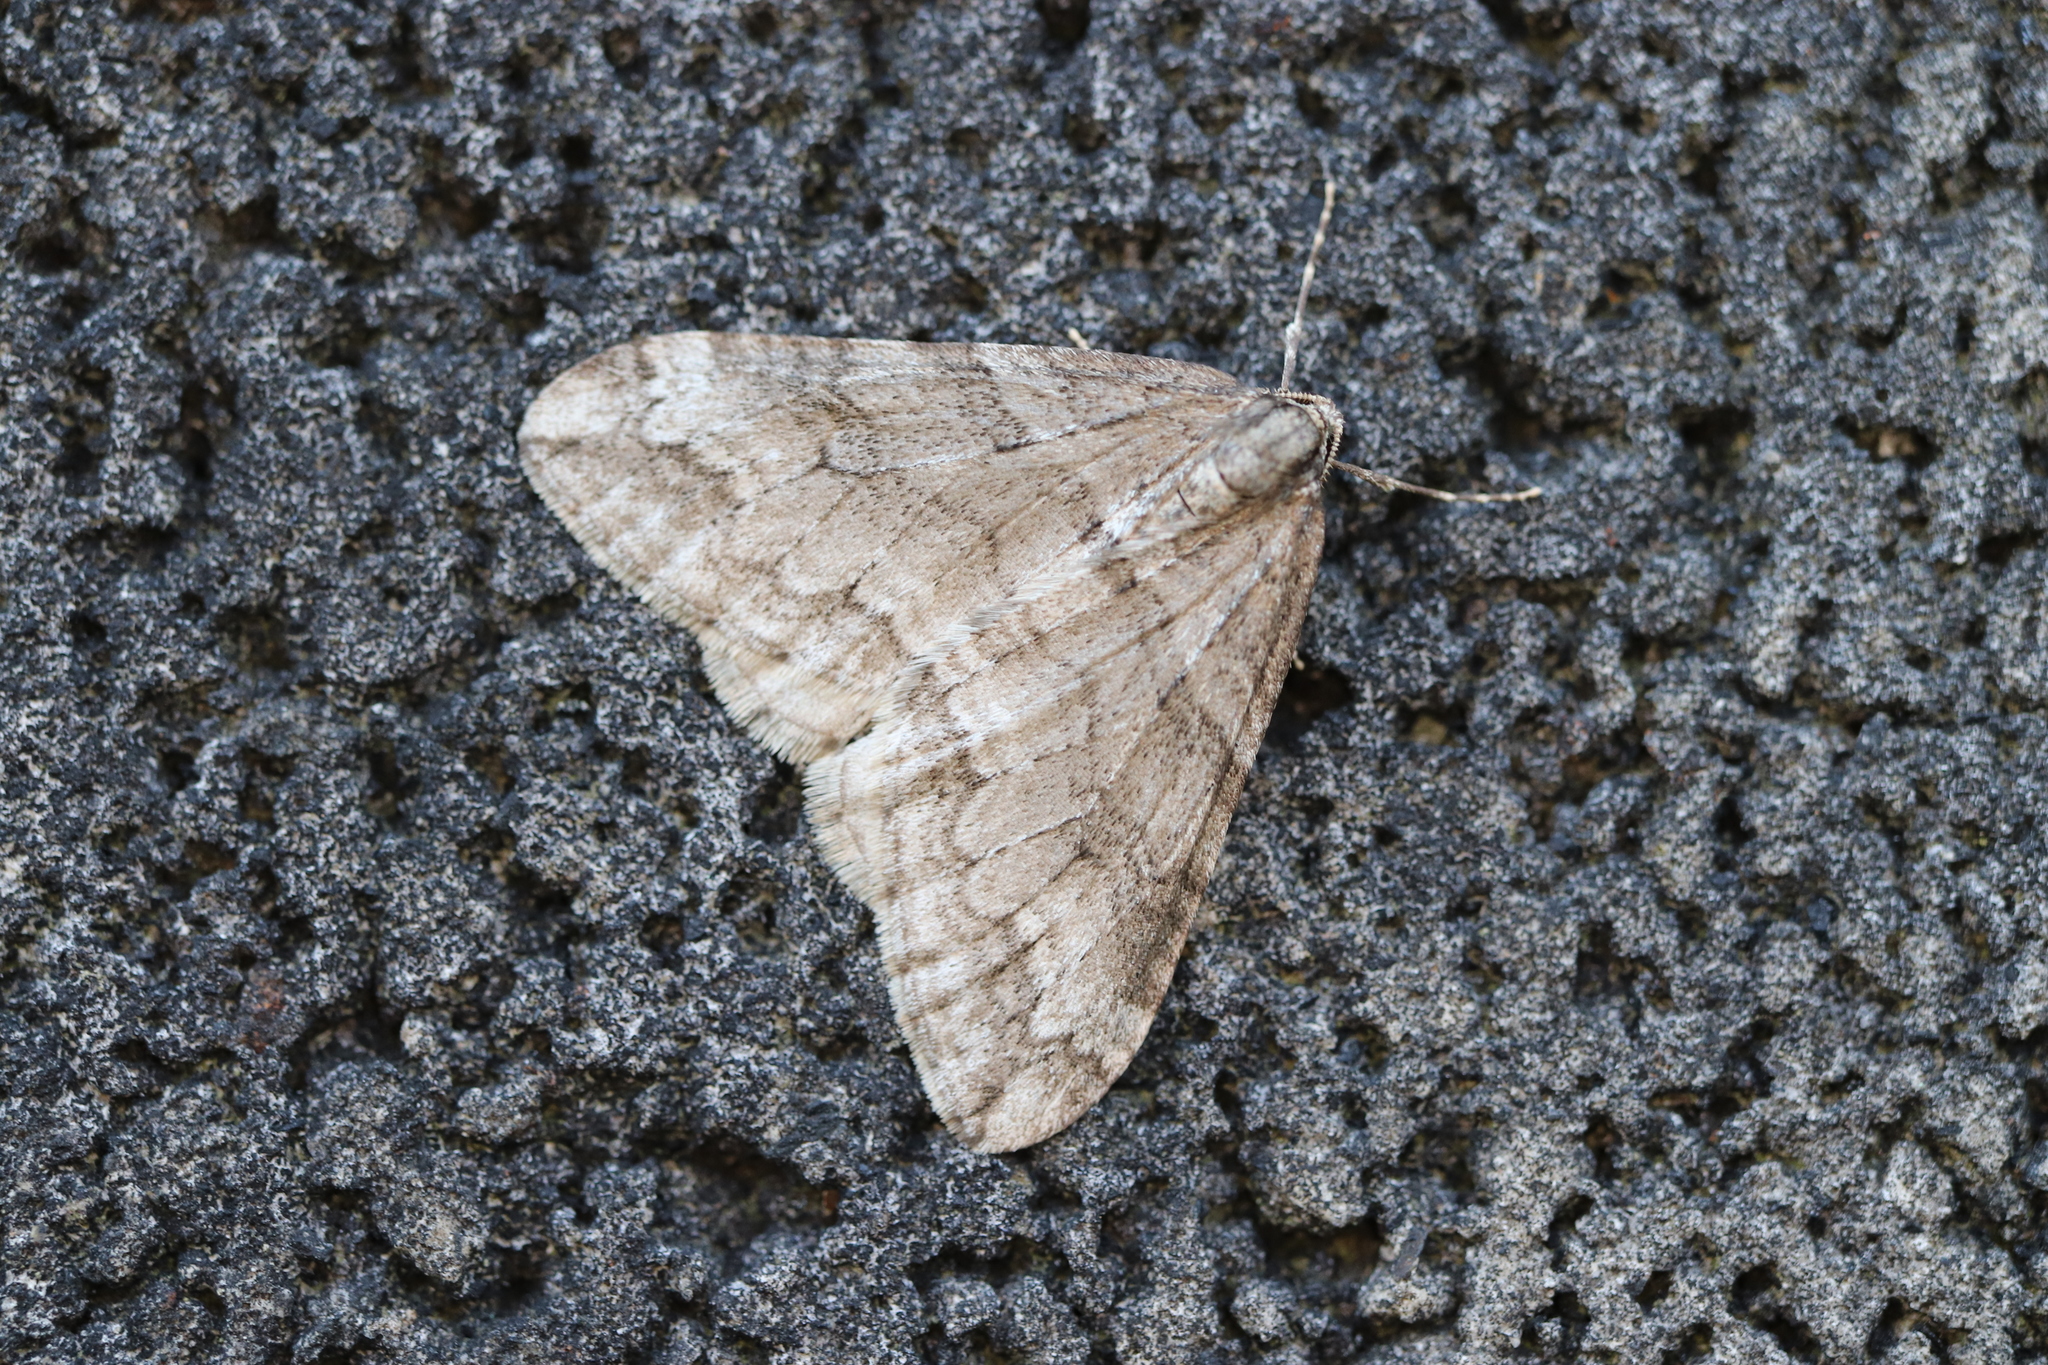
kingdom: Animalia
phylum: Arthropoda
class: Insecta
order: Lepidoptera
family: Geometridae
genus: Operophtera
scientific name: Operophtera relegata
